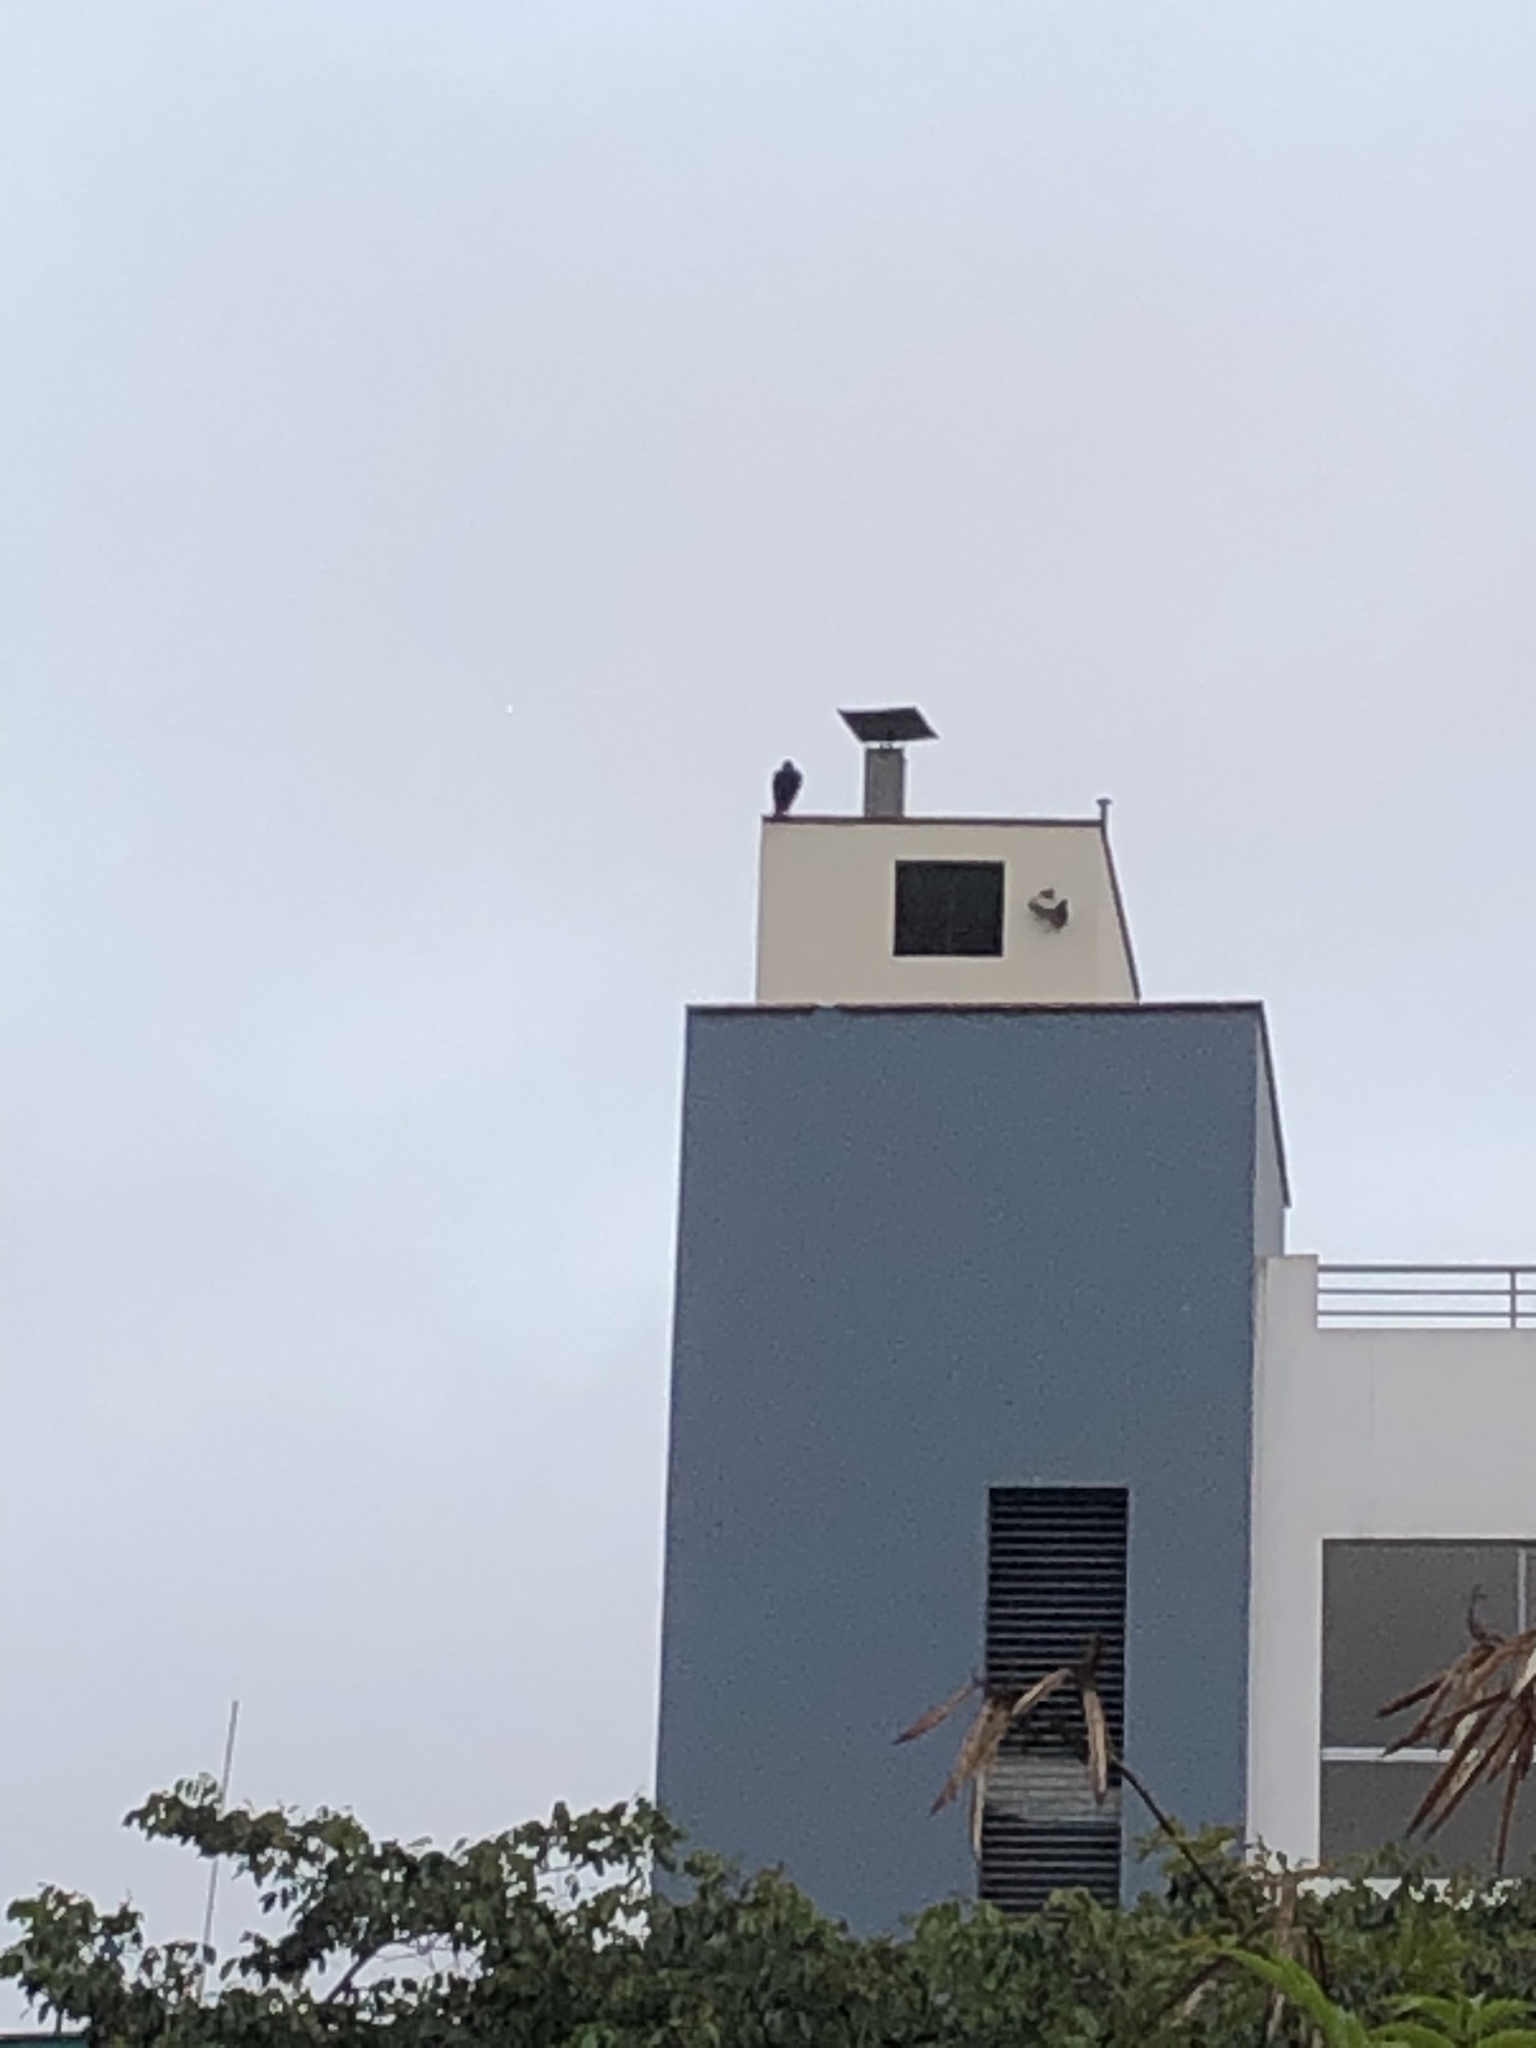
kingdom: Animalia
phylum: Chordata
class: Aves
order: Accipitriformes
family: Cathartidae
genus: Coragyps
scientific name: Coragyps atratus
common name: Black vulture
